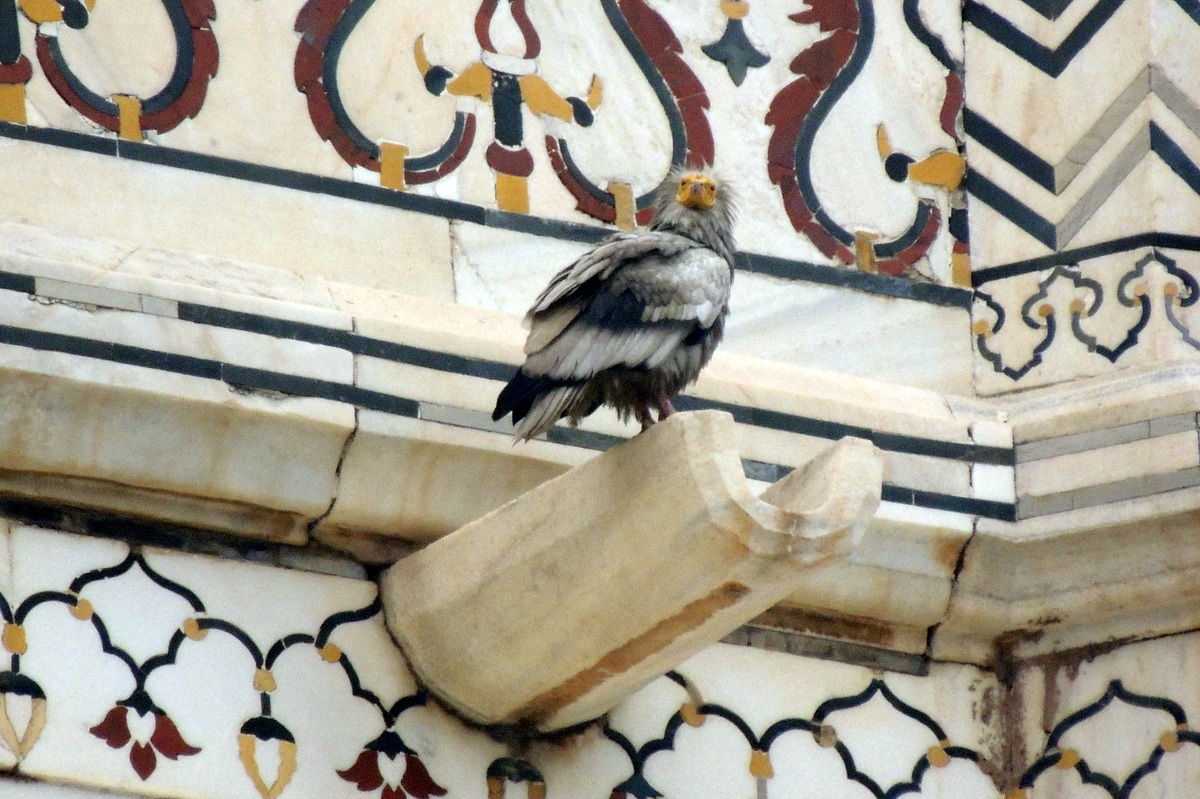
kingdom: Animalia
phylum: Chordata
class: Aves
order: Accipitriformes
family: Accipitridae
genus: Neophron
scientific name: Neophron percnopterus
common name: Egyptian vulture
